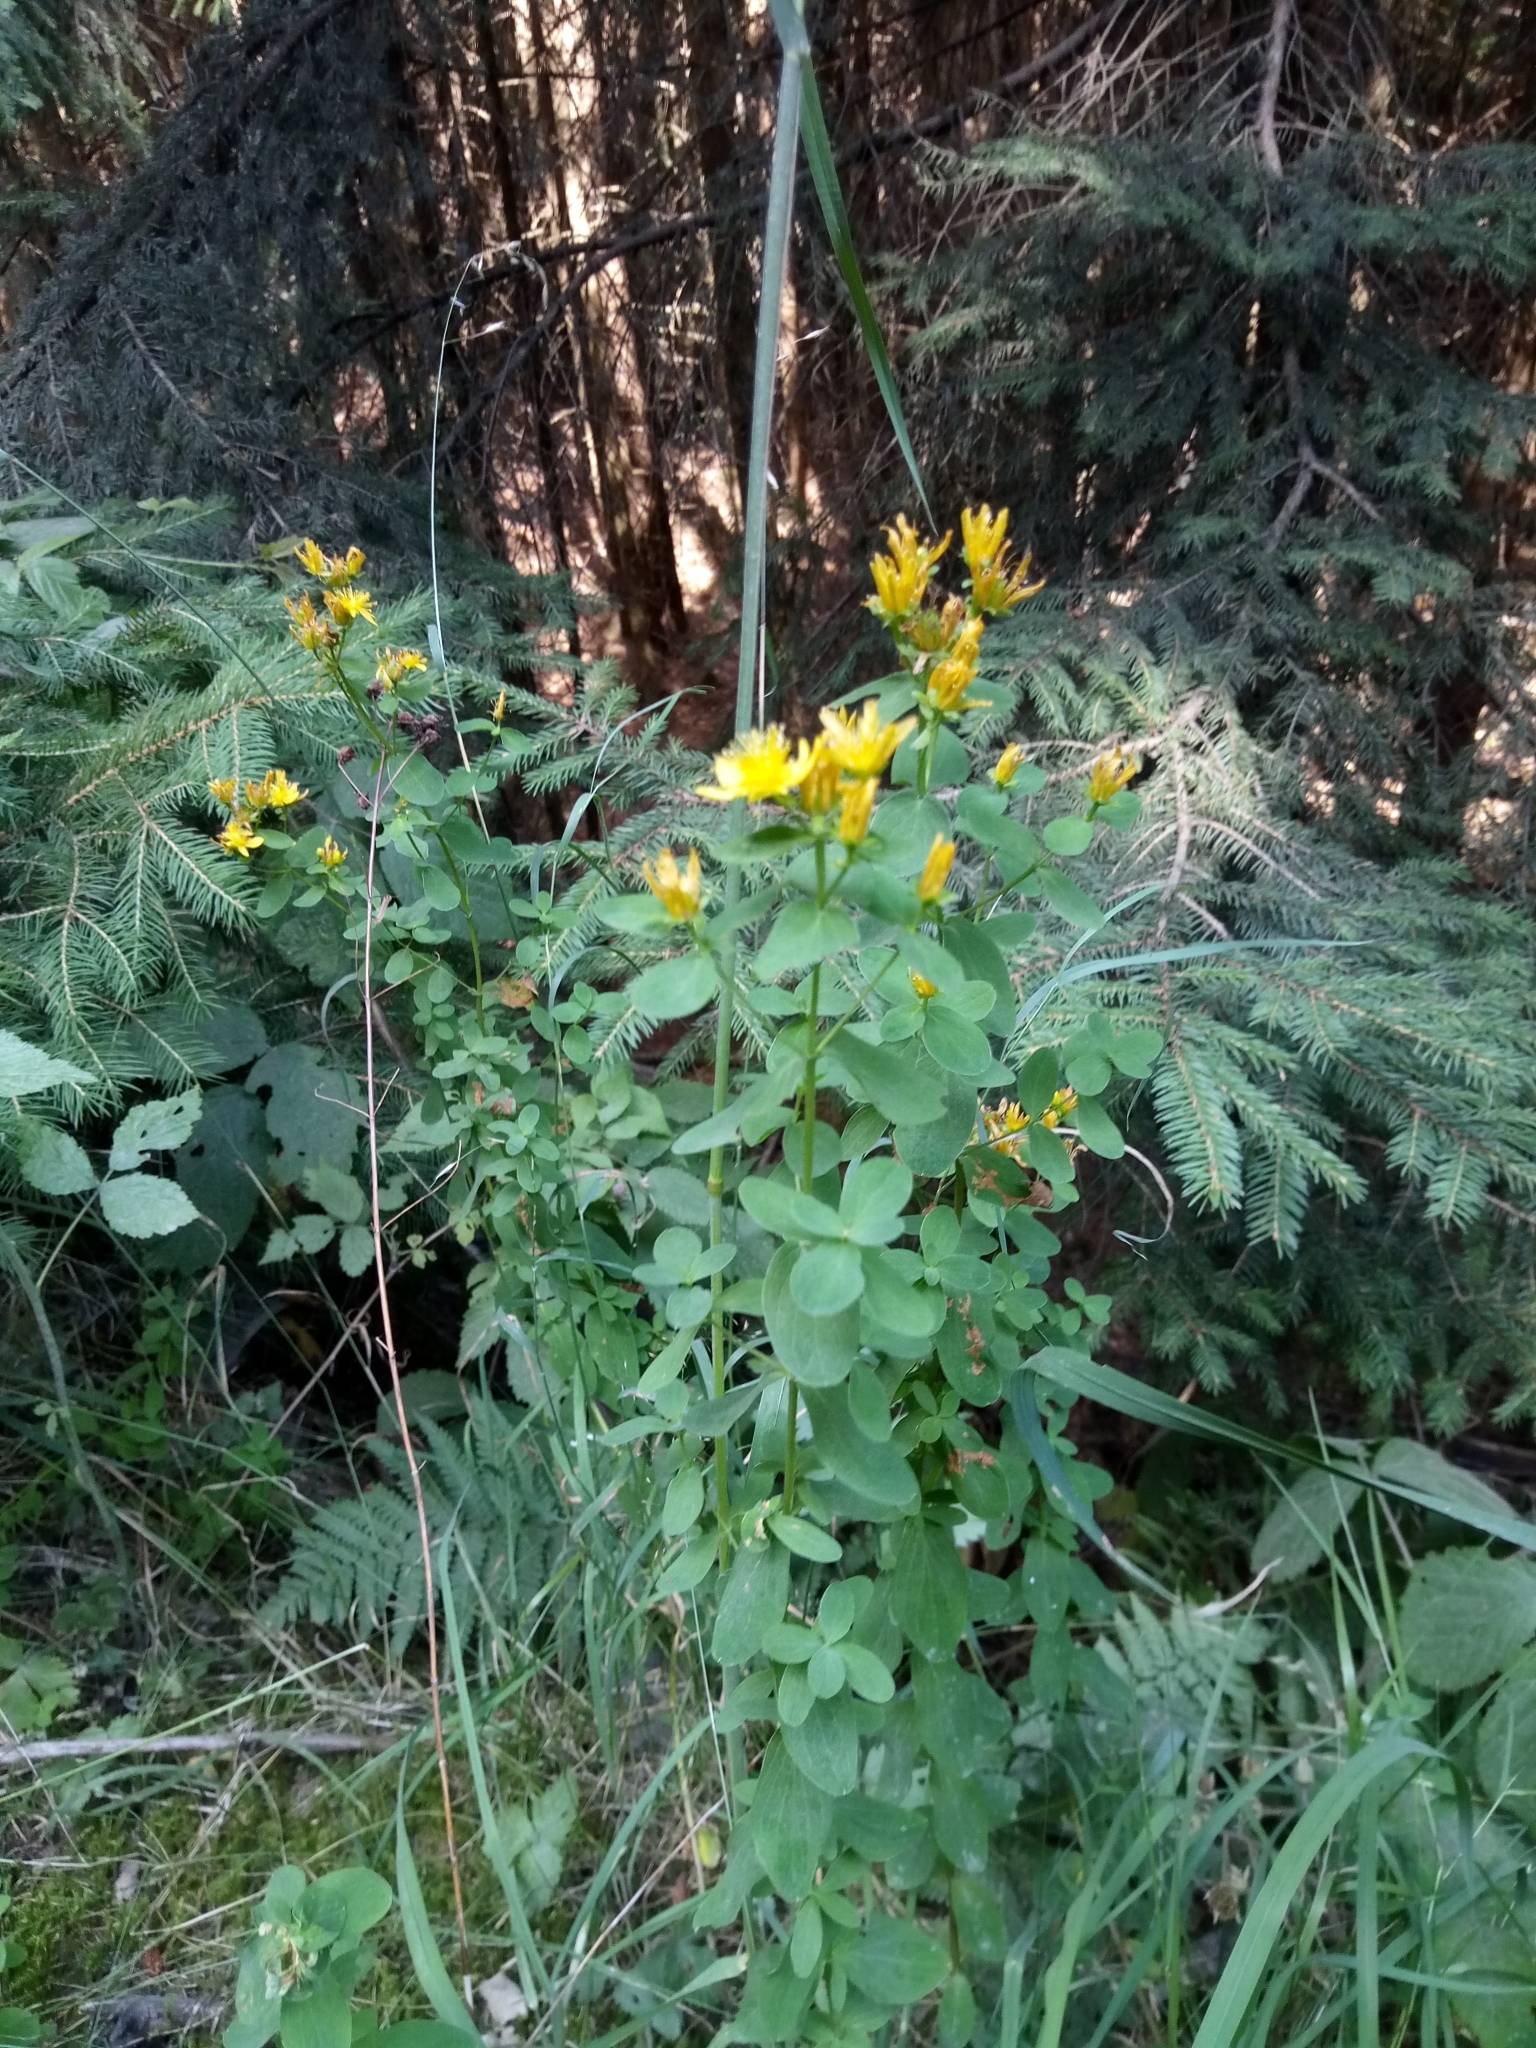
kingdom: Plantae
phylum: Tracheophyta
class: Magnoliopsida
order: Malpighiales
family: Hypericaceae
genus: Hypericum
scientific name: Hypericum maculatum
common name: Imperforate st. john's-wort
